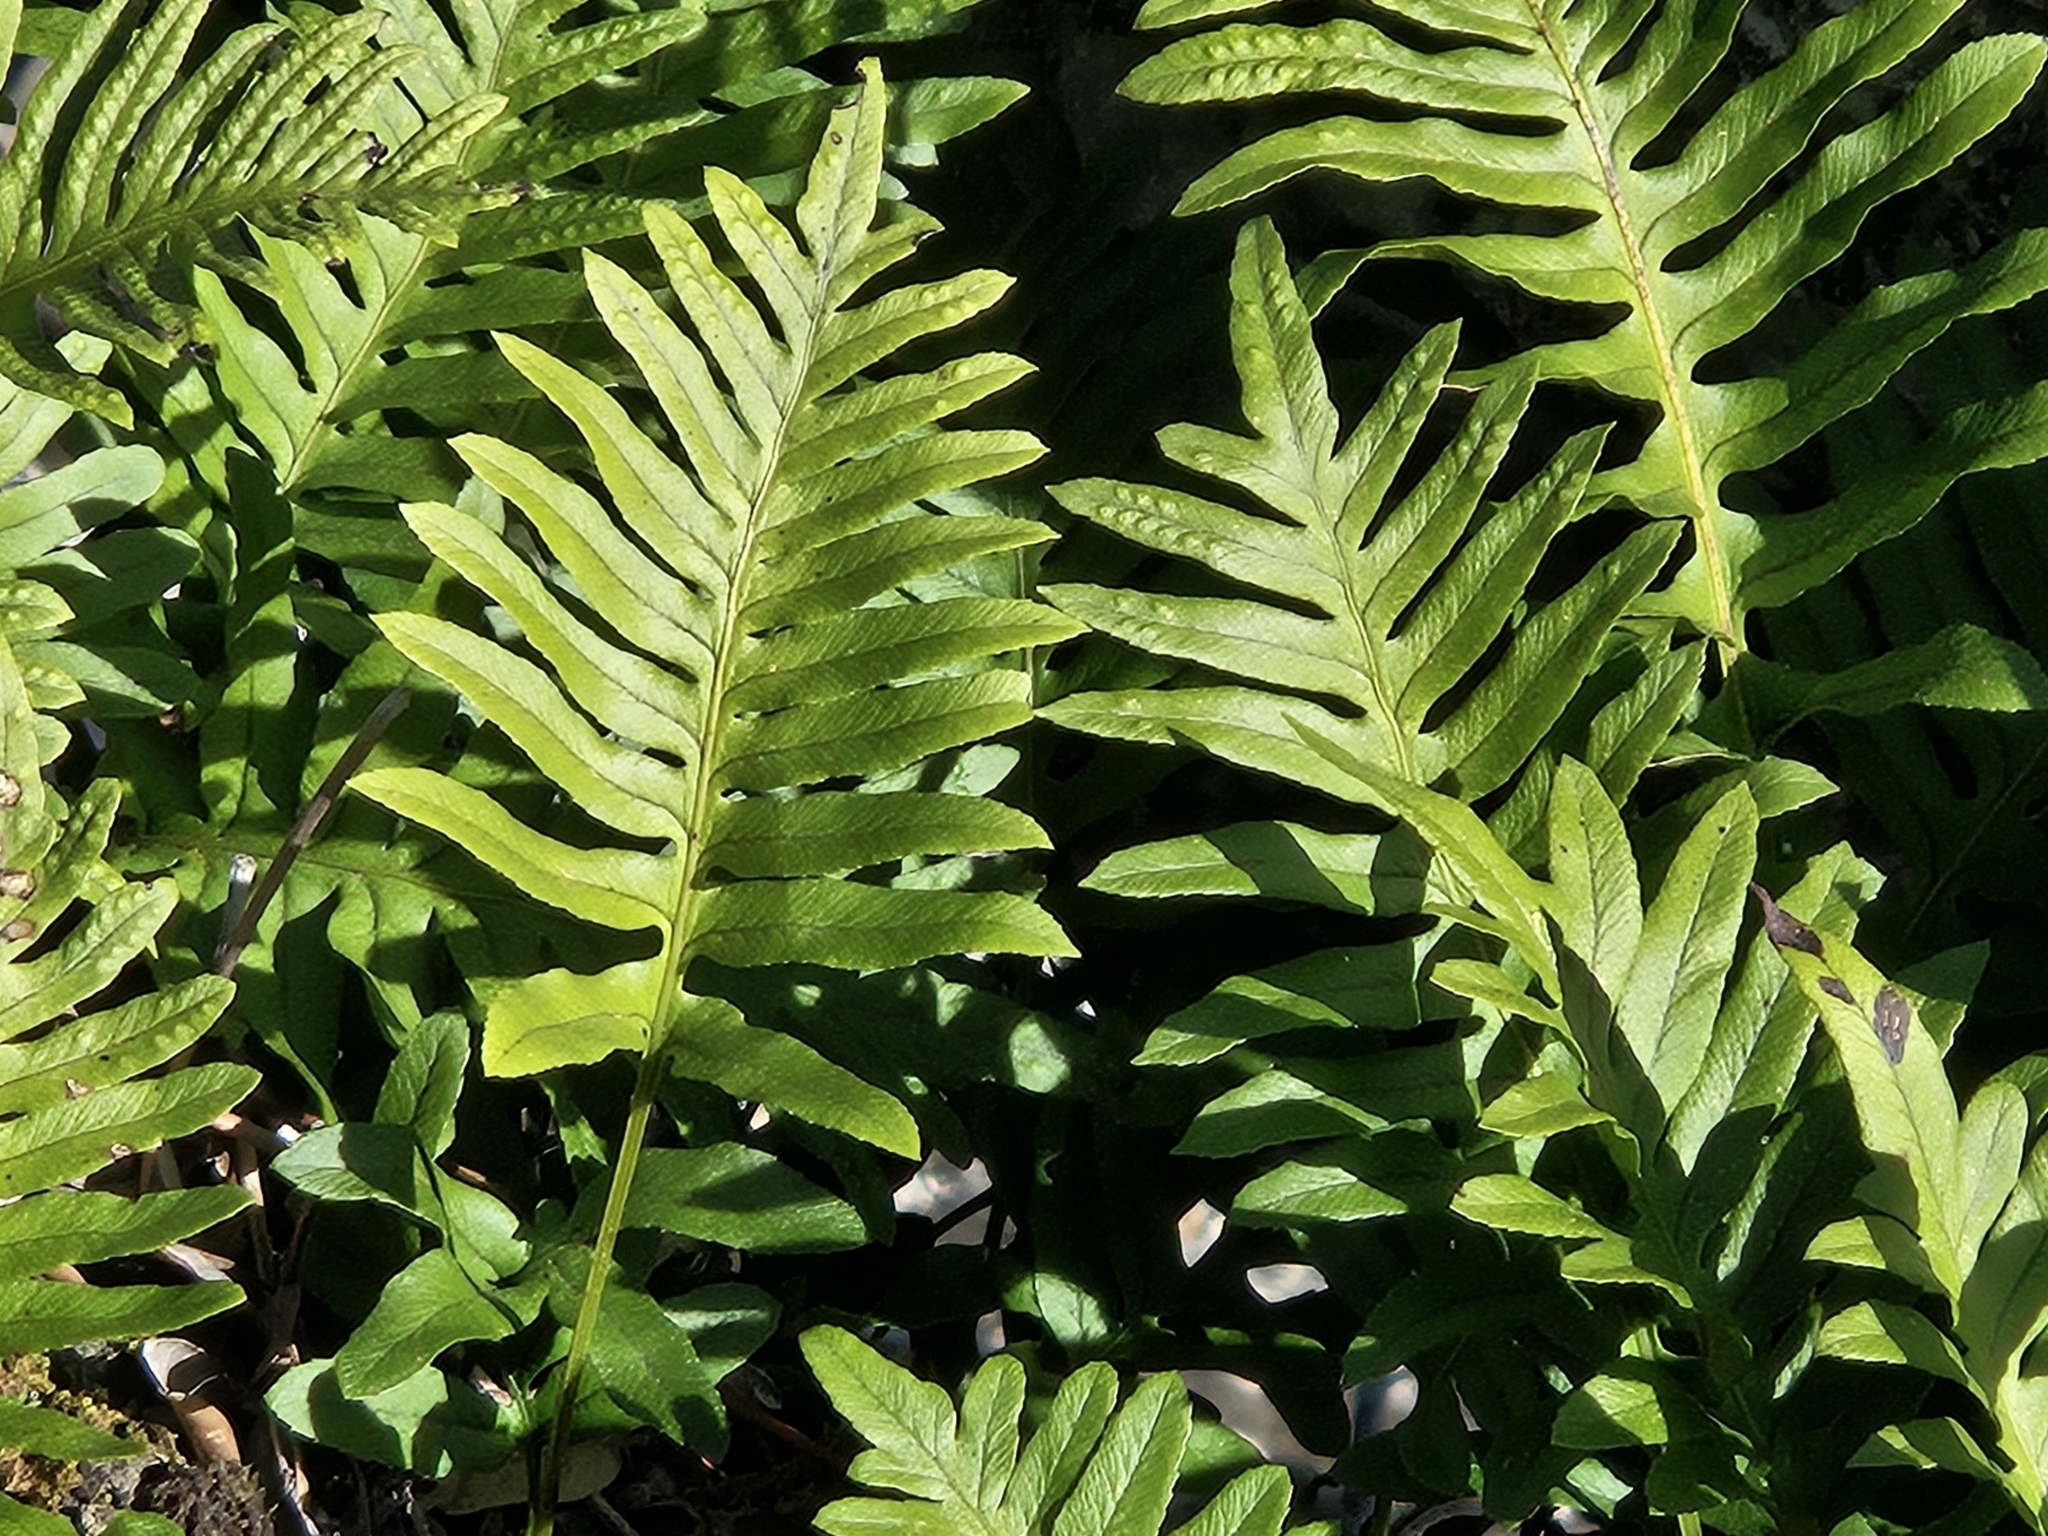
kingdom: Plantae
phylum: Tracheophyta
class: Polypodiopsida
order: Polypodiales
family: Polypodiaceae
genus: Polypodium
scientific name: Polypodium cambricum
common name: Southern polypody
